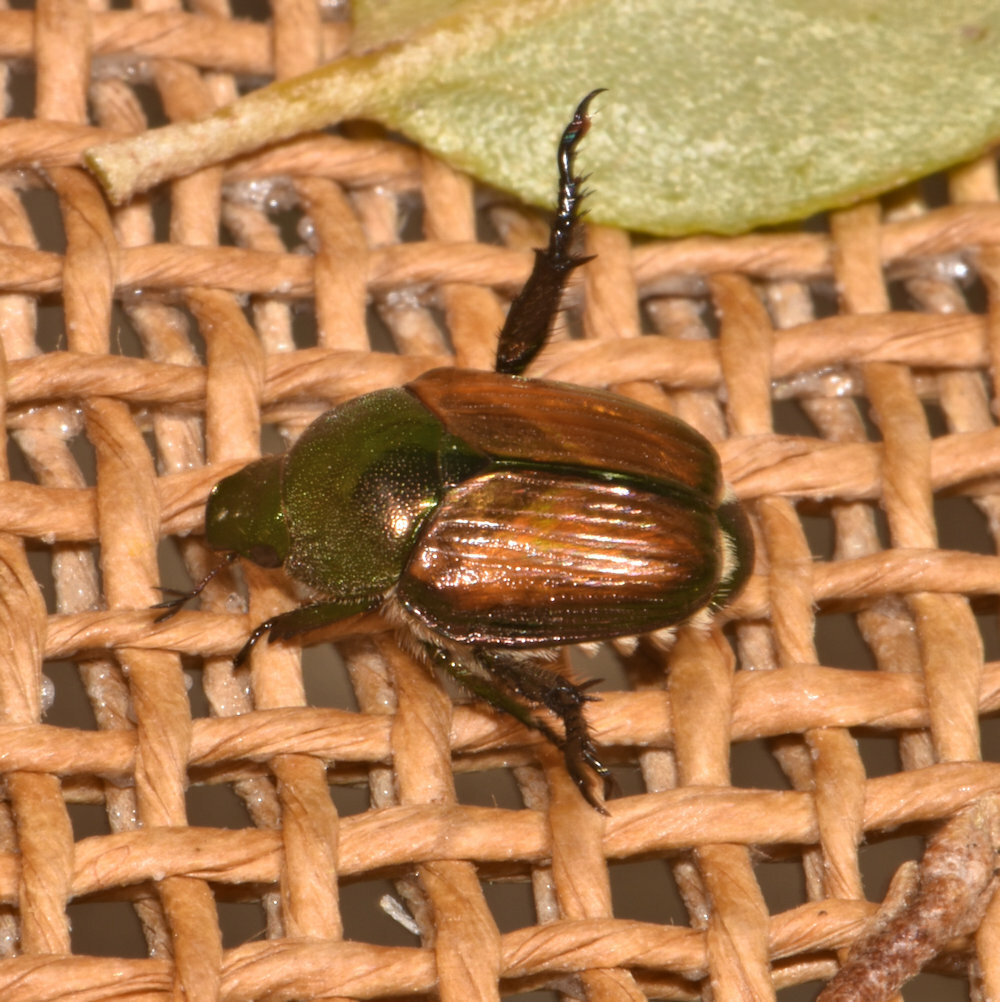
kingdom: Animalia
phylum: Arthropoda
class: Insecta
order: Coleoptera
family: Scarabaeidae
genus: Popillia
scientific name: Popillia japonica
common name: Japanese beetle
